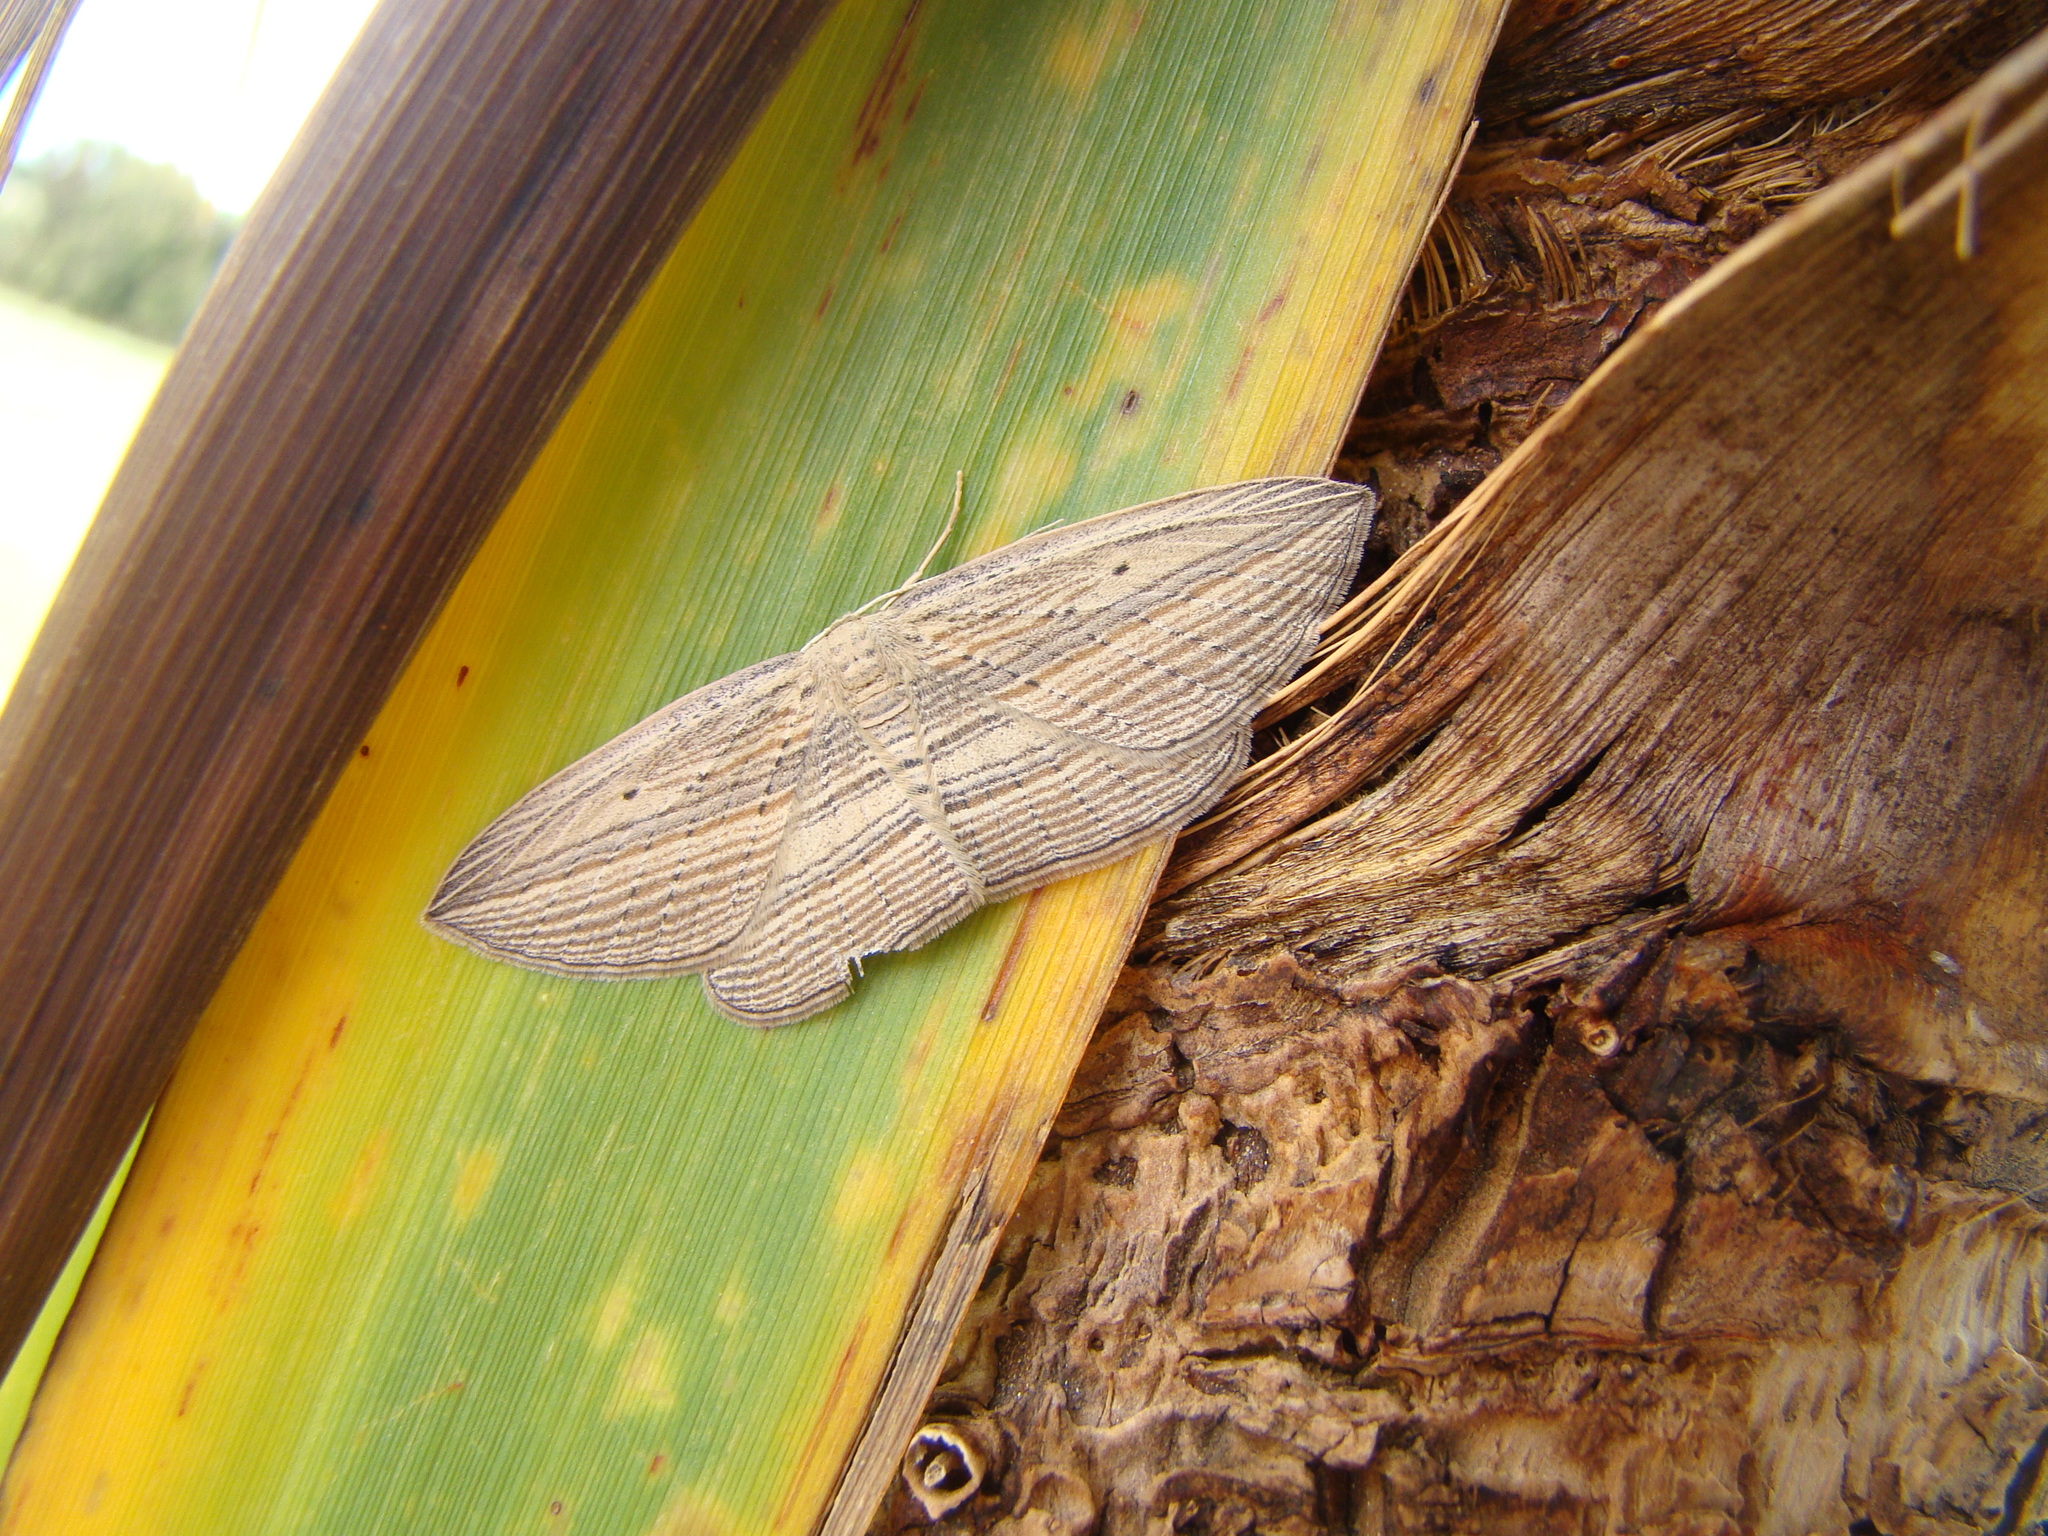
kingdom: Animalia
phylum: Arthropoda
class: Insecta
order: Lepidoptera
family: Geometridae
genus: Epiphryne
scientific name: Epiphryne verriculata
